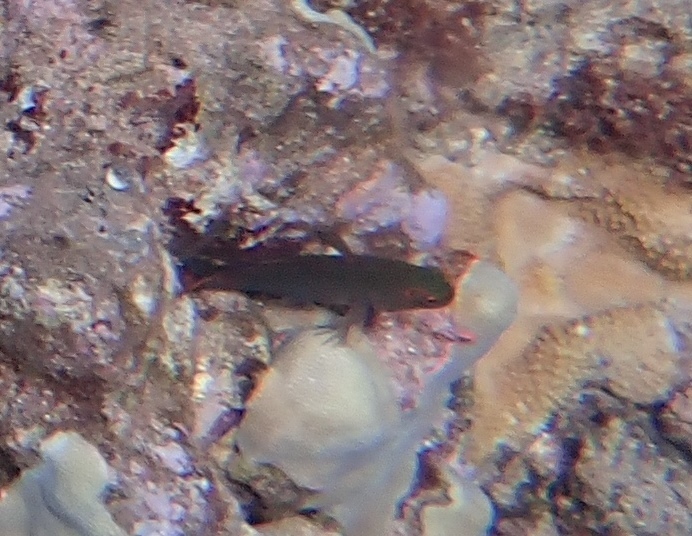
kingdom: Animalia
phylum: Chordata
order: Perciformes
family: Cirrhitidae
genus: Paracirrhites
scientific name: Paracirrhites arcatus
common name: Arc-eye hawkfish
